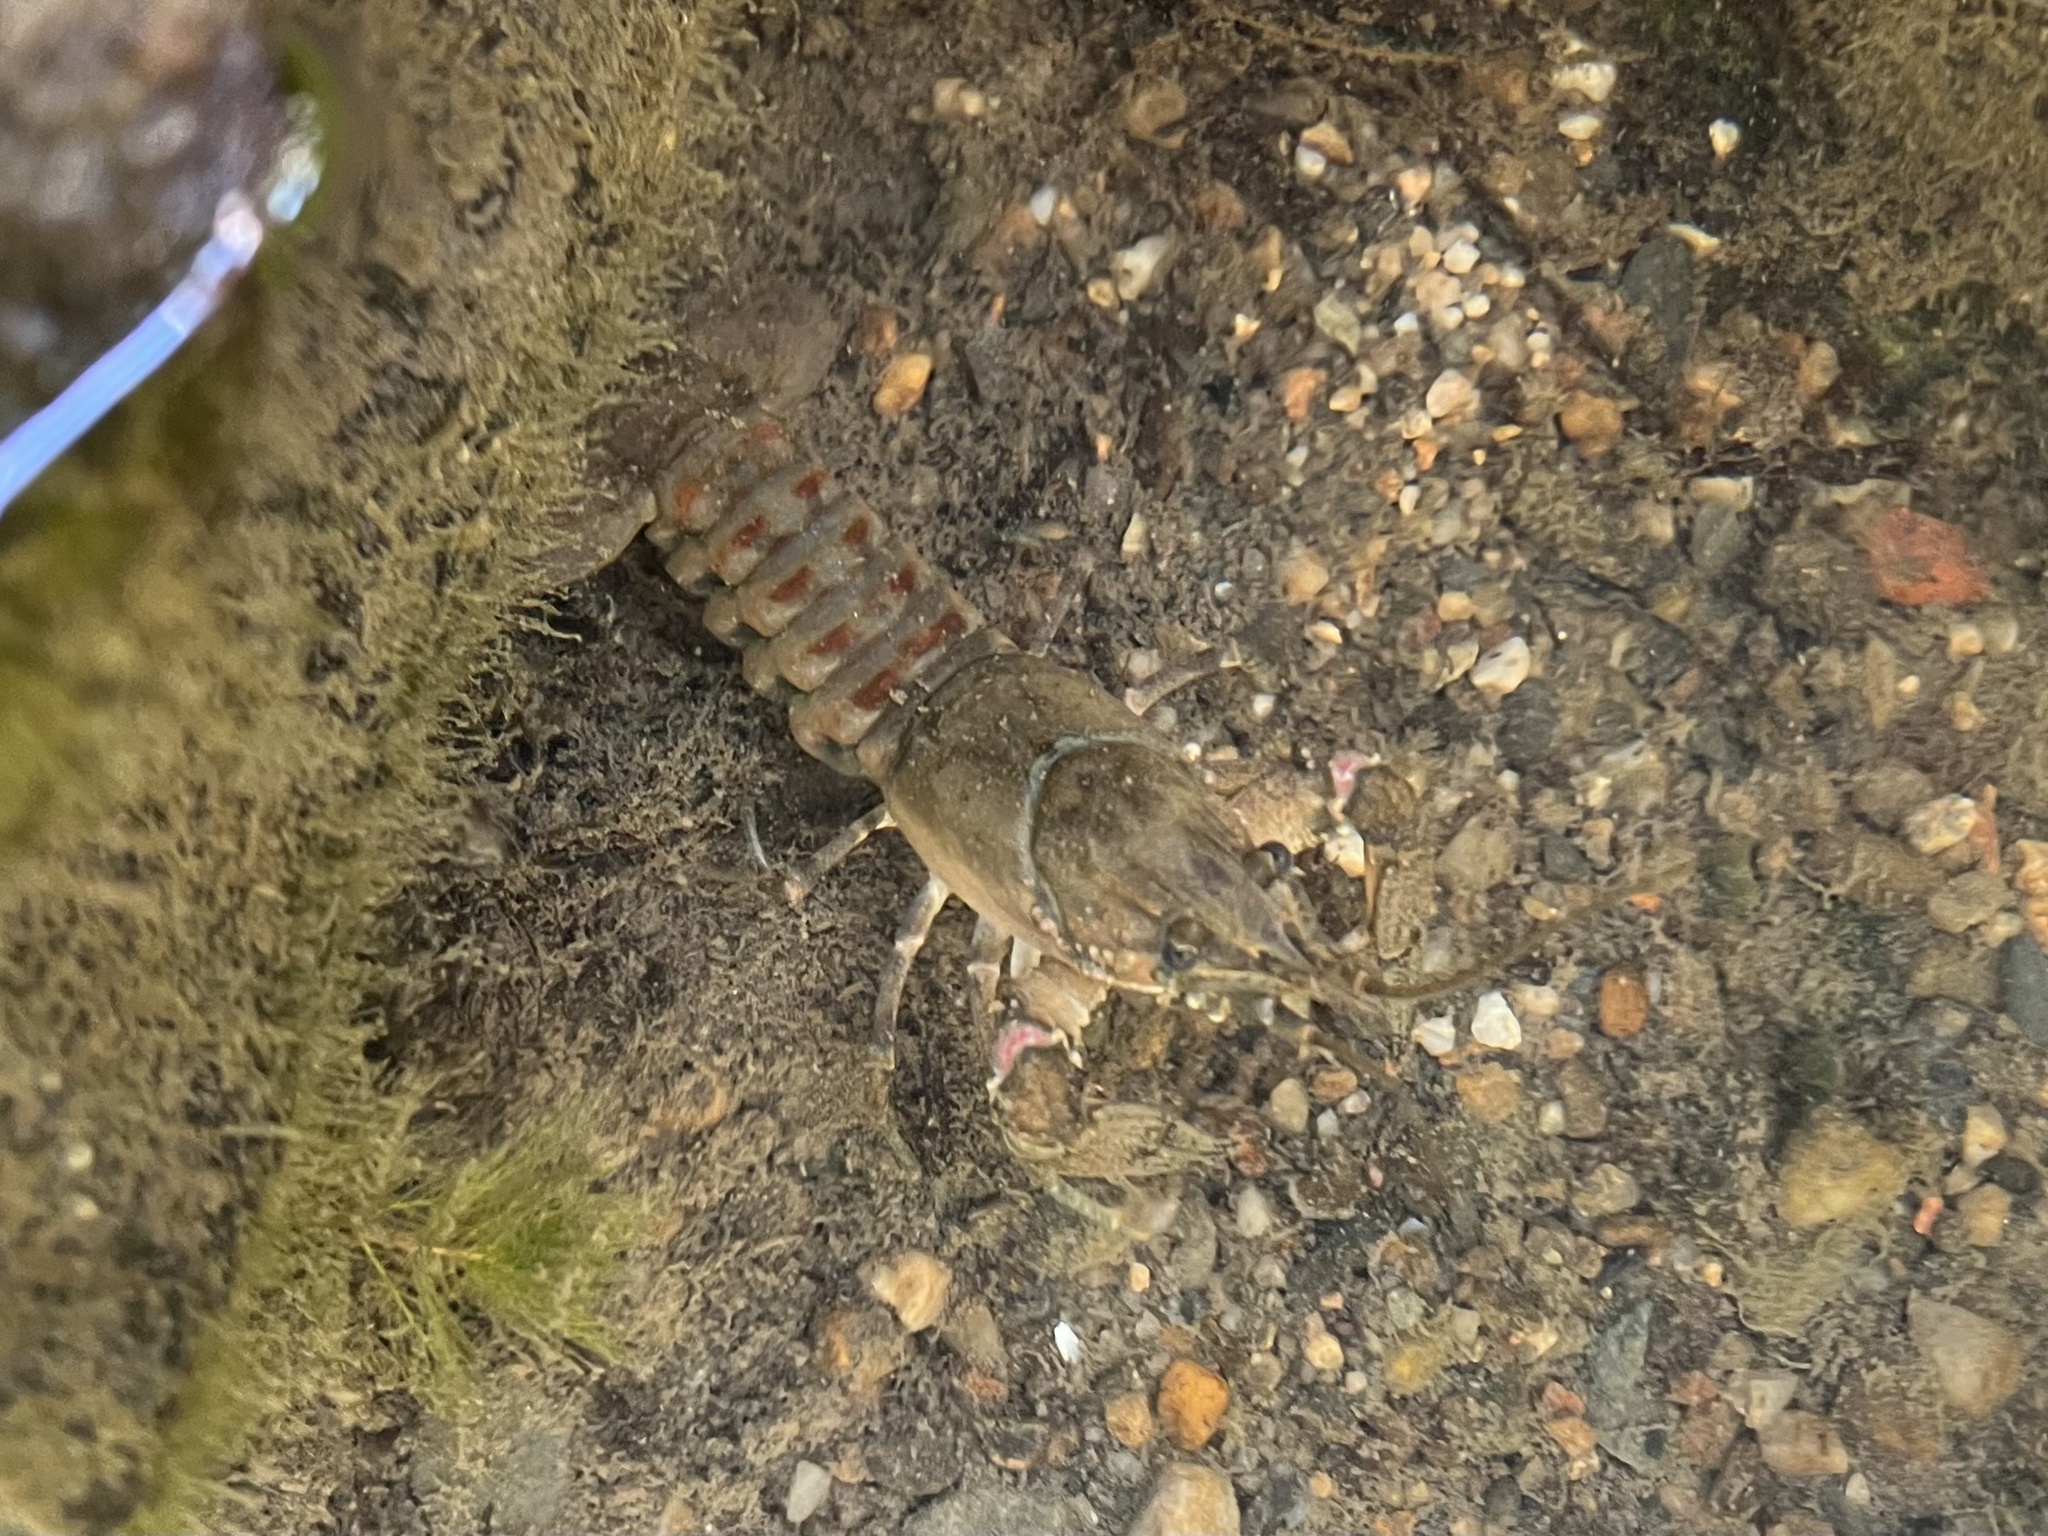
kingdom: Animalia
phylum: Arthropoda
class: Malacostraca
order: Decapoda
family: Cambaridae
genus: Faxonius
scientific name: Faxonius limosus
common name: American crayfish
